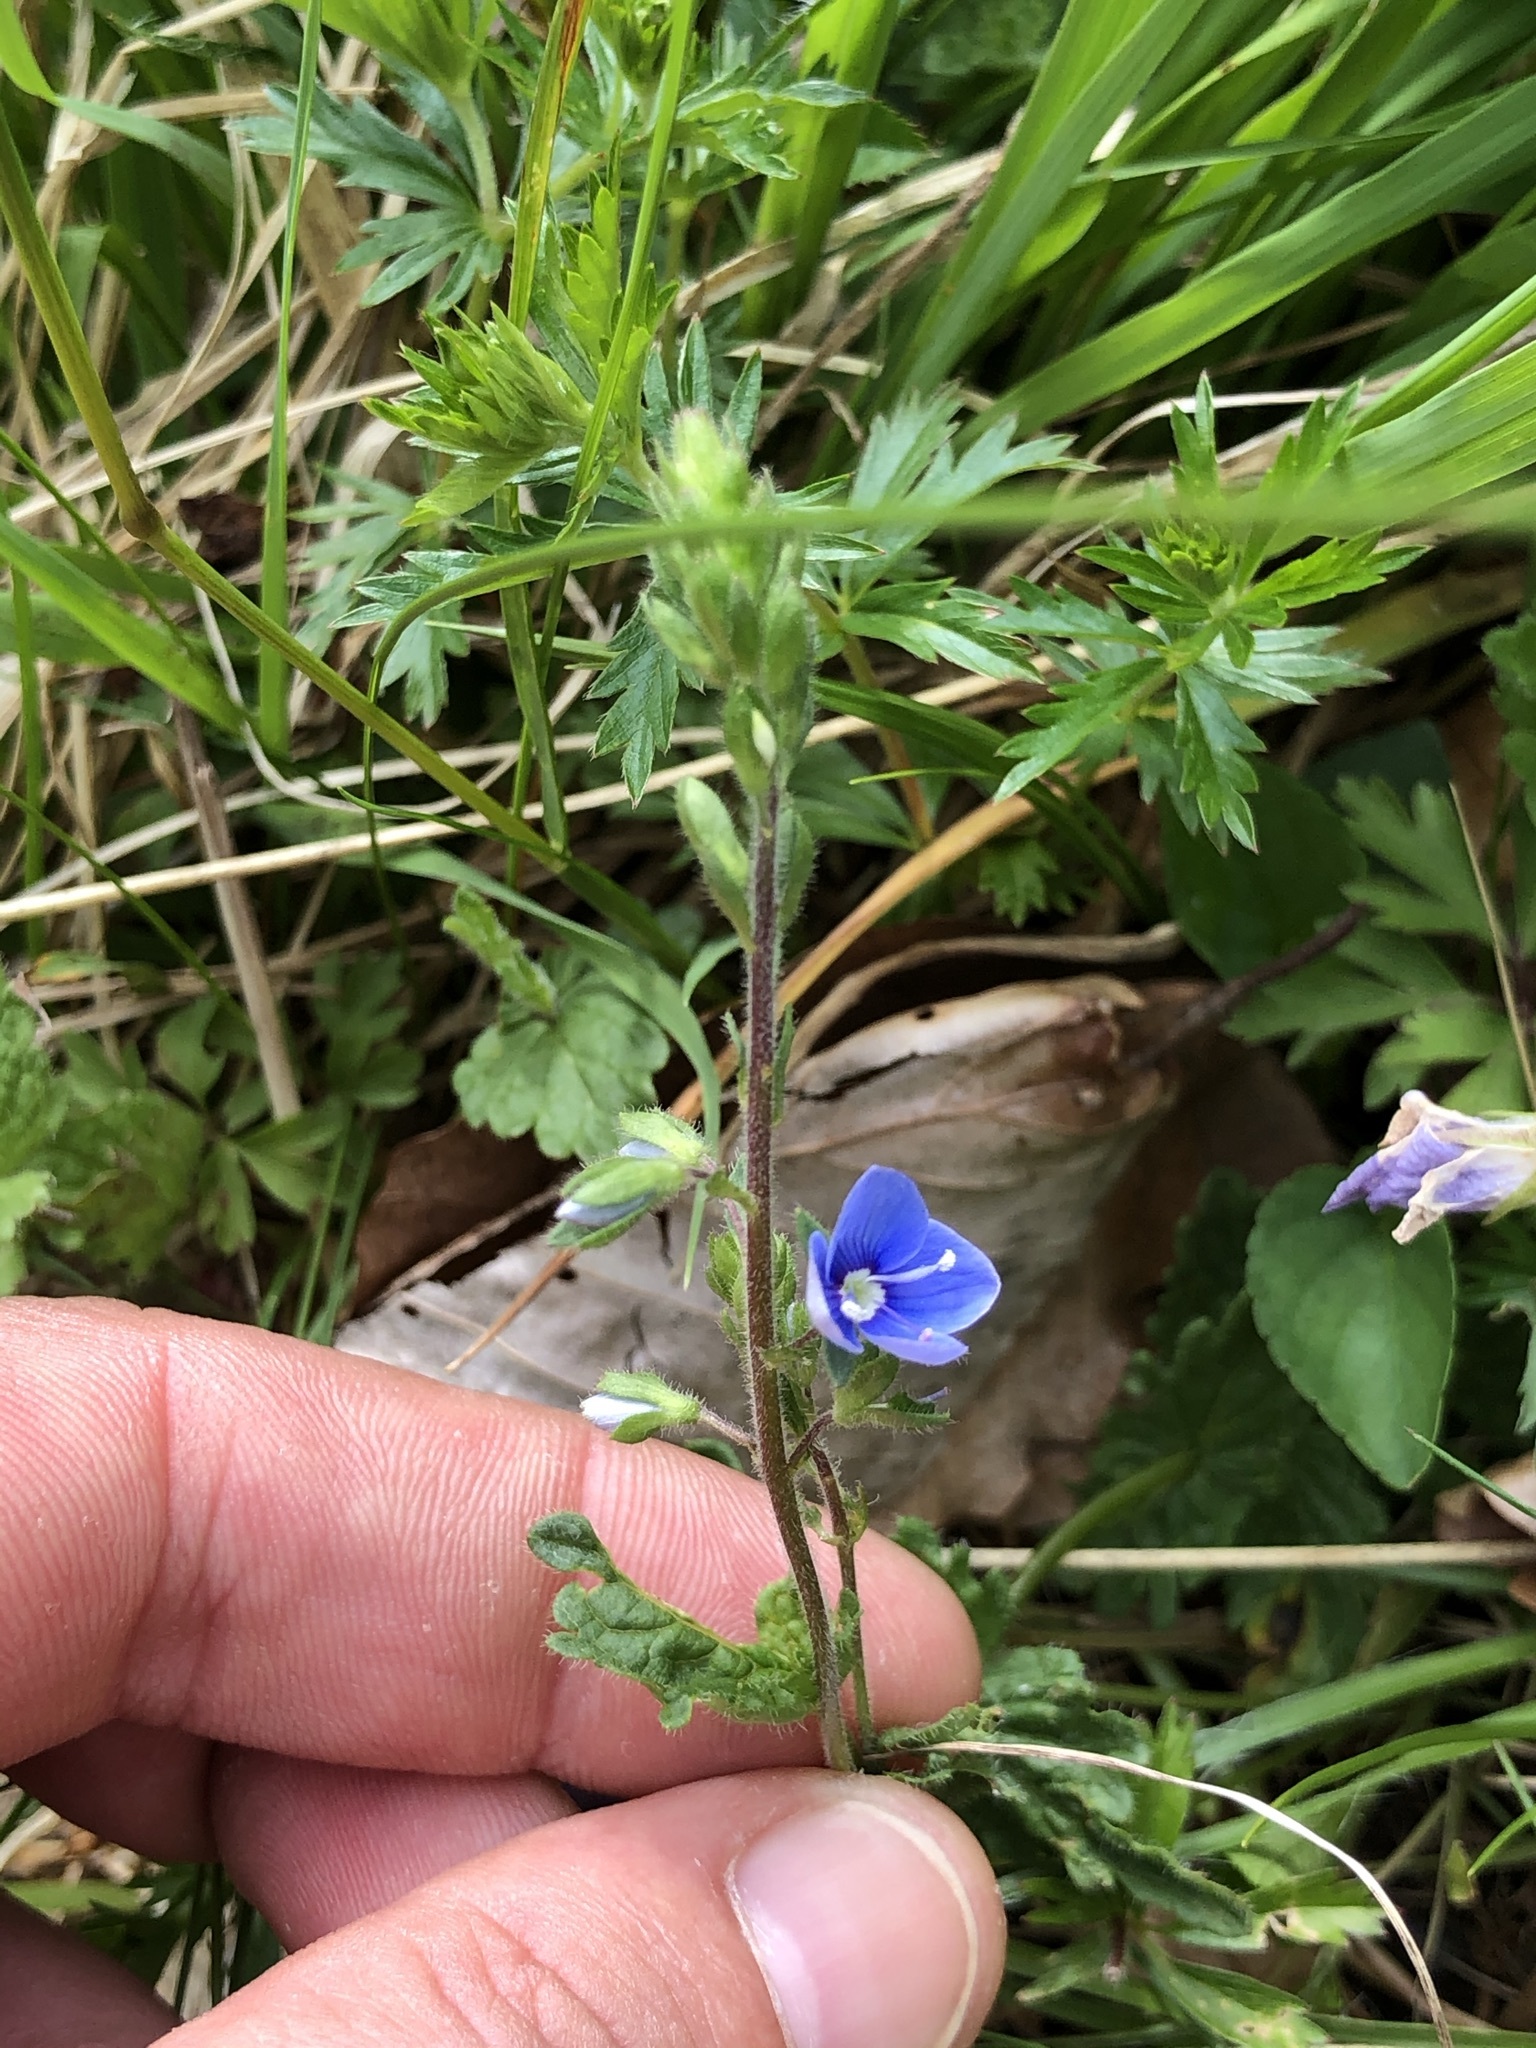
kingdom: Plantae
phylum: Tracheophyta
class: Magnoliopsida
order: Lamiales
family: Plantaginaceae
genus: Veronica
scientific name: Veronica chamaedrys
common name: Germander speedwell
